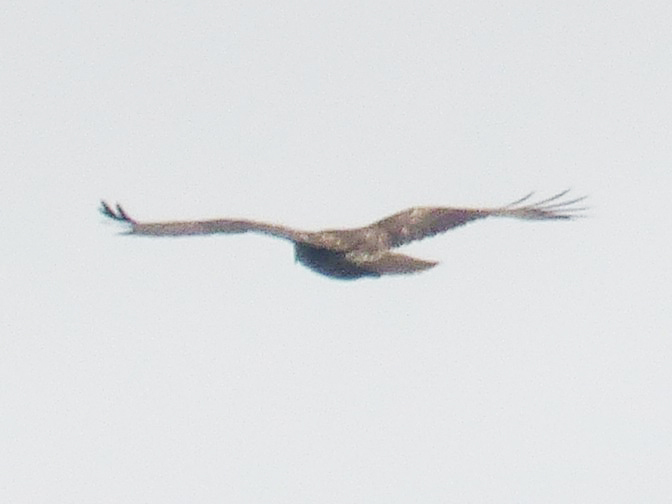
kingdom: Animalia
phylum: Chordata
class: Aves
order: Accipitriformes
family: Accipitridae
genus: Buteo
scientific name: Buteo jamaicensis
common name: Red-tailed hawk
